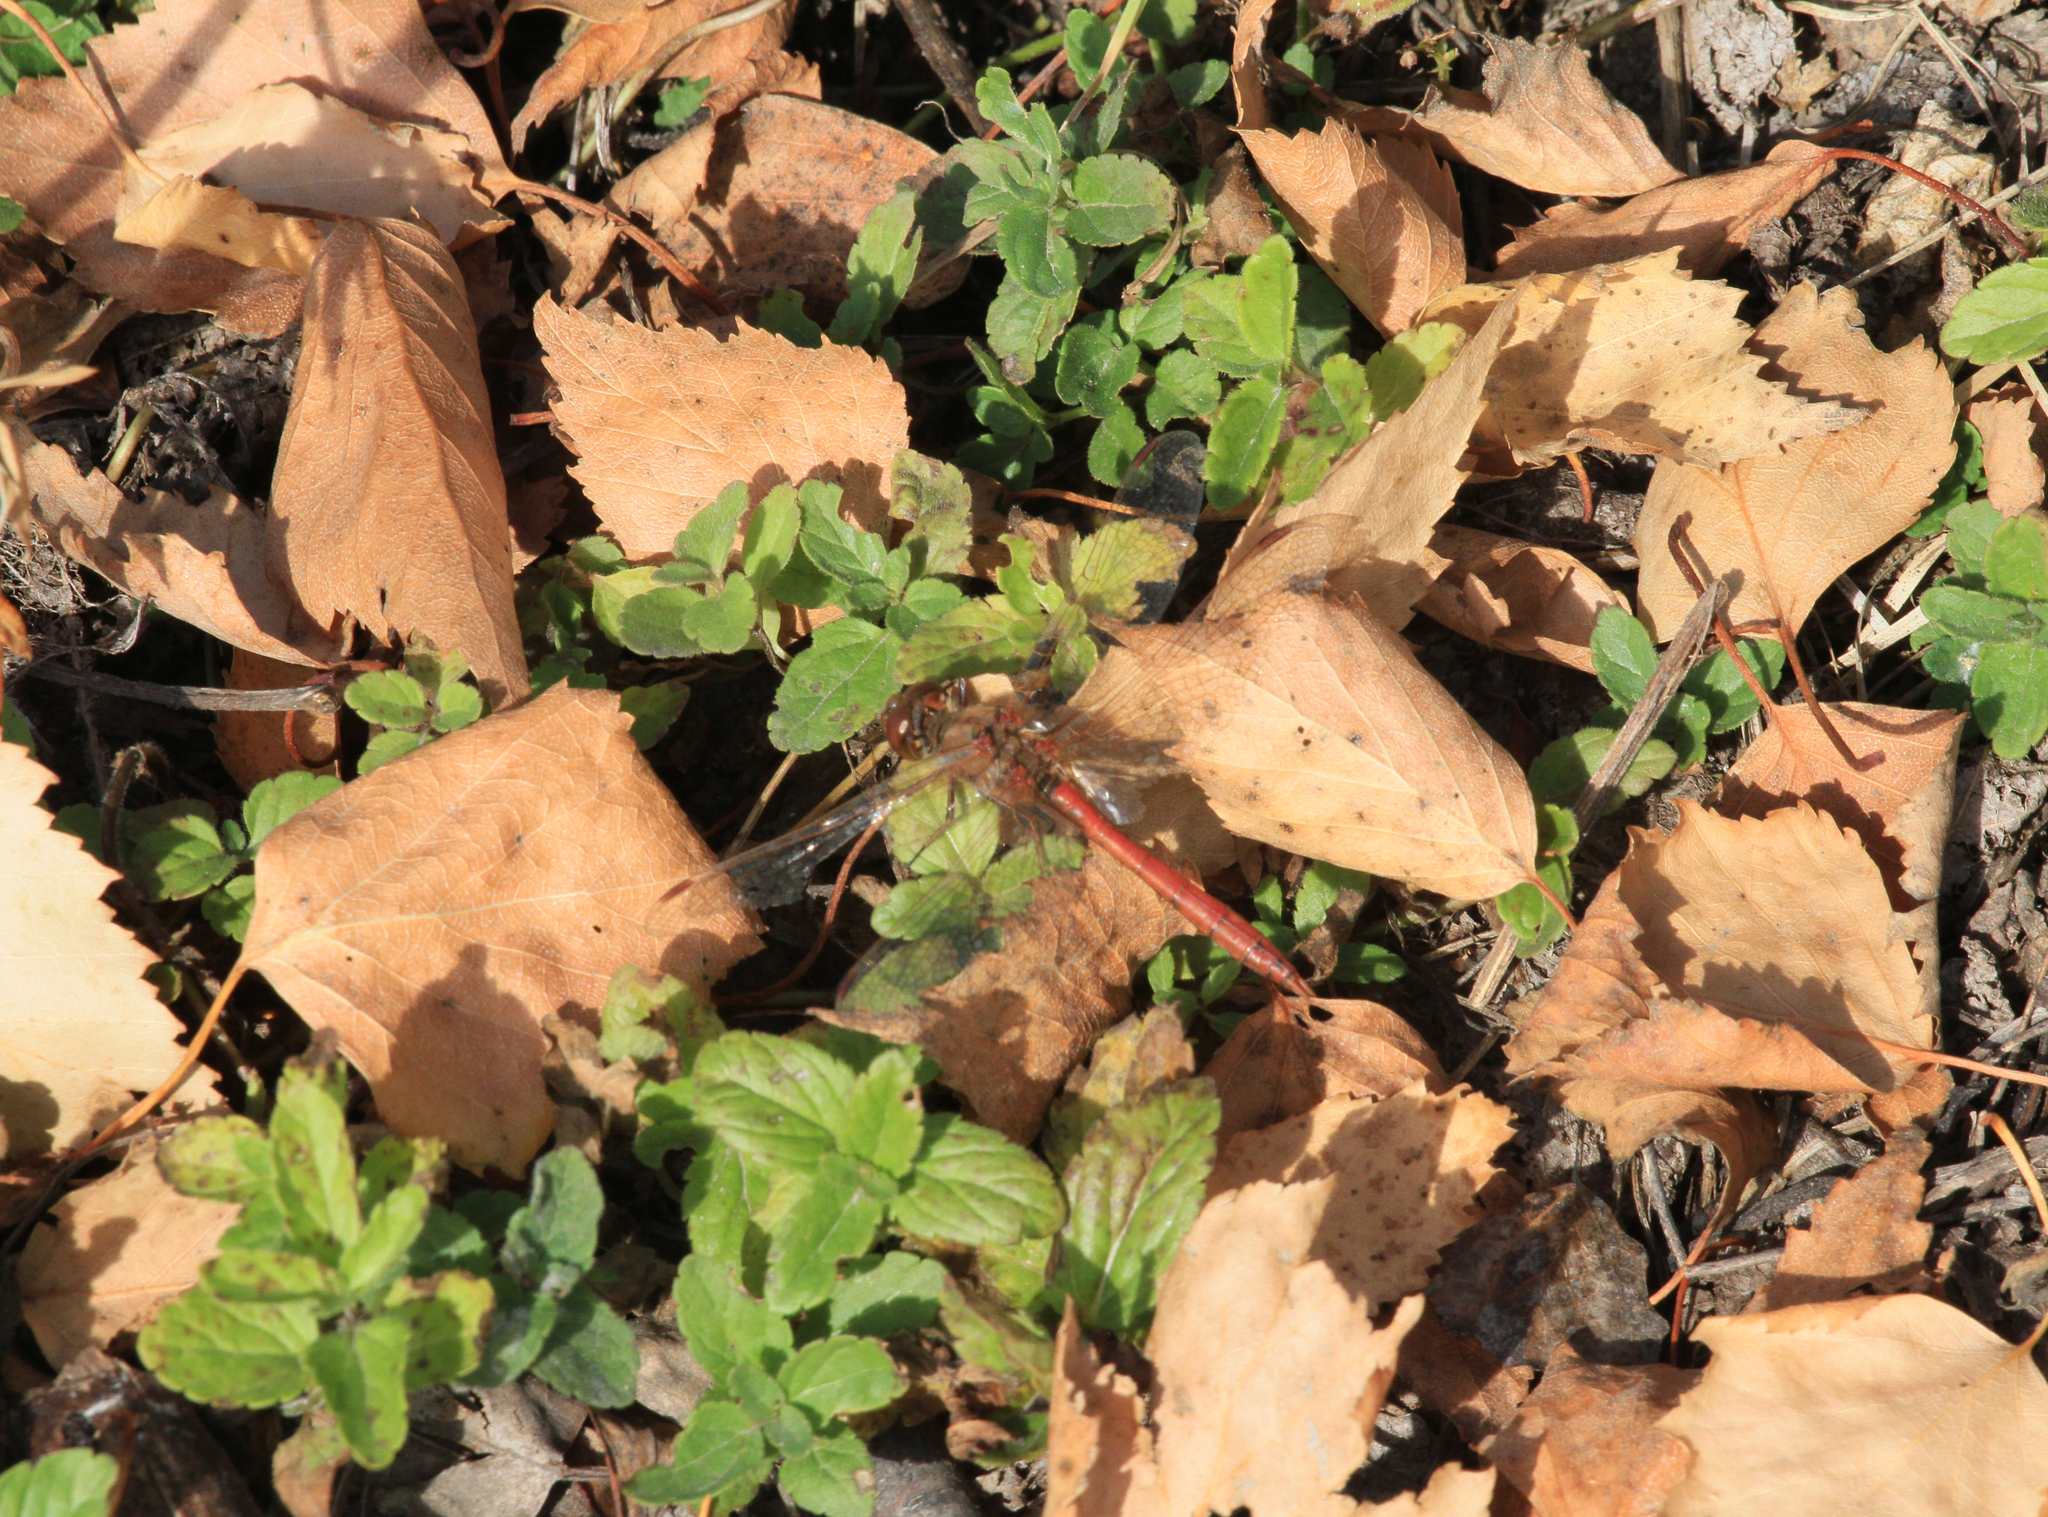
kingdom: Animalia
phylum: Arthropoda
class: Insecta
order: Odonata
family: Libellulidae
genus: Sympetrum
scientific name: Sympetrum vulgatum
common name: Vagrant darter
